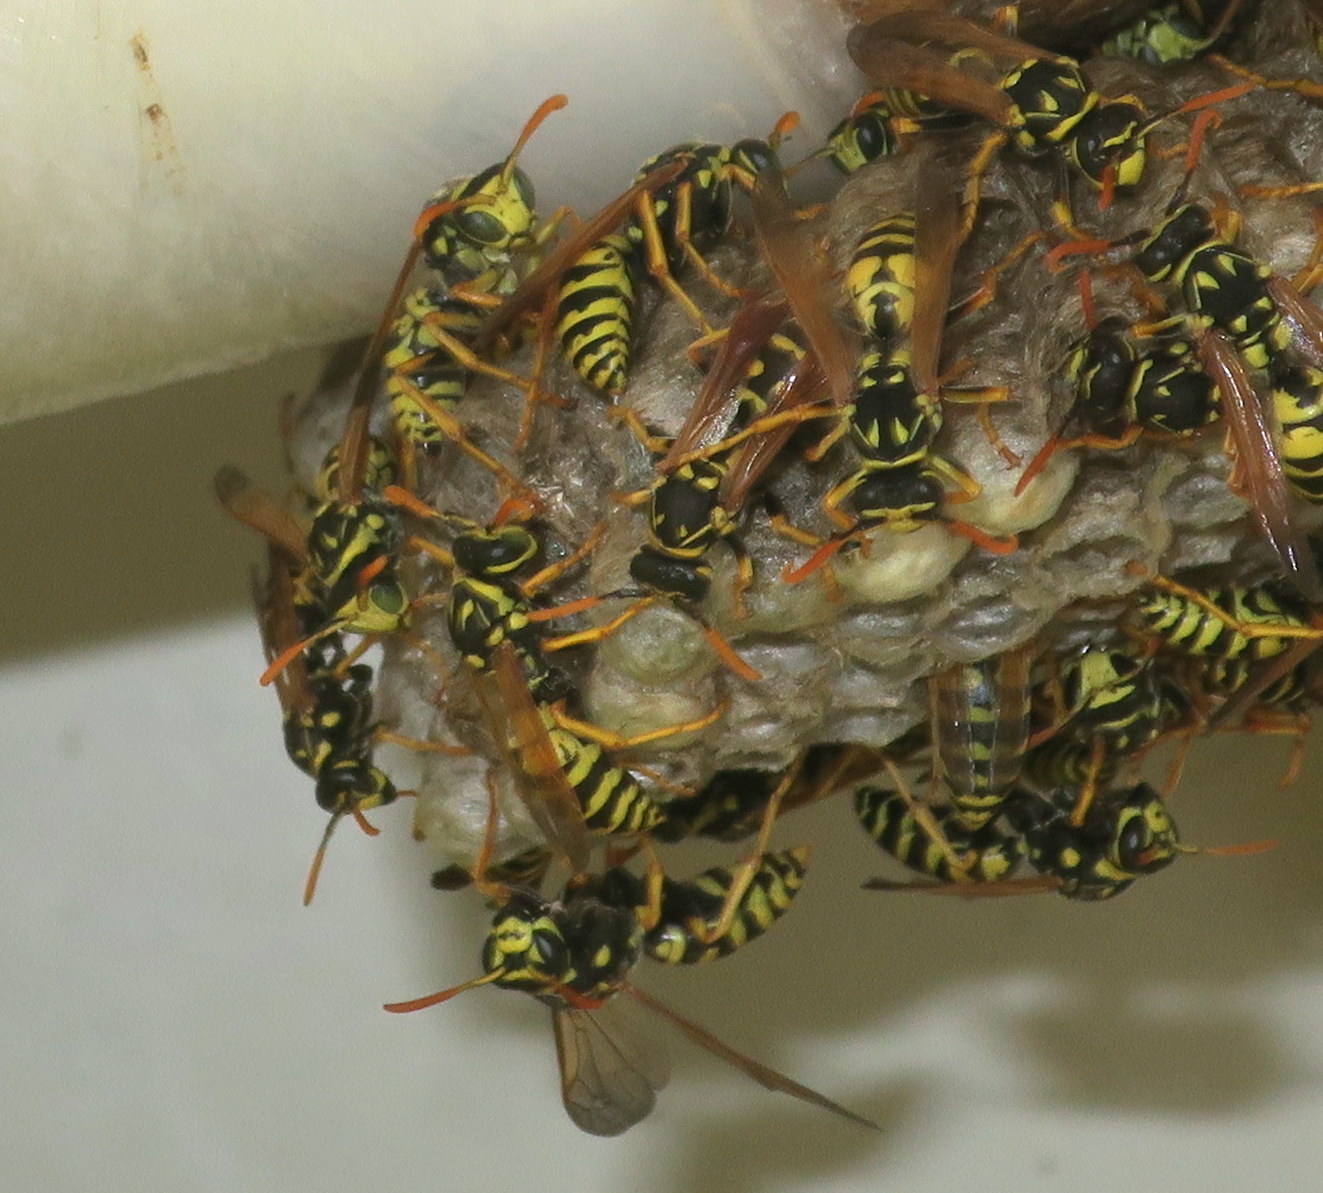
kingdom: Animalia
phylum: Arthropoda
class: Insecta
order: Hymenoptera
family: Eumenidae
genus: Polistes
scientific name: Polistes dominula
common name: Paper wasp
